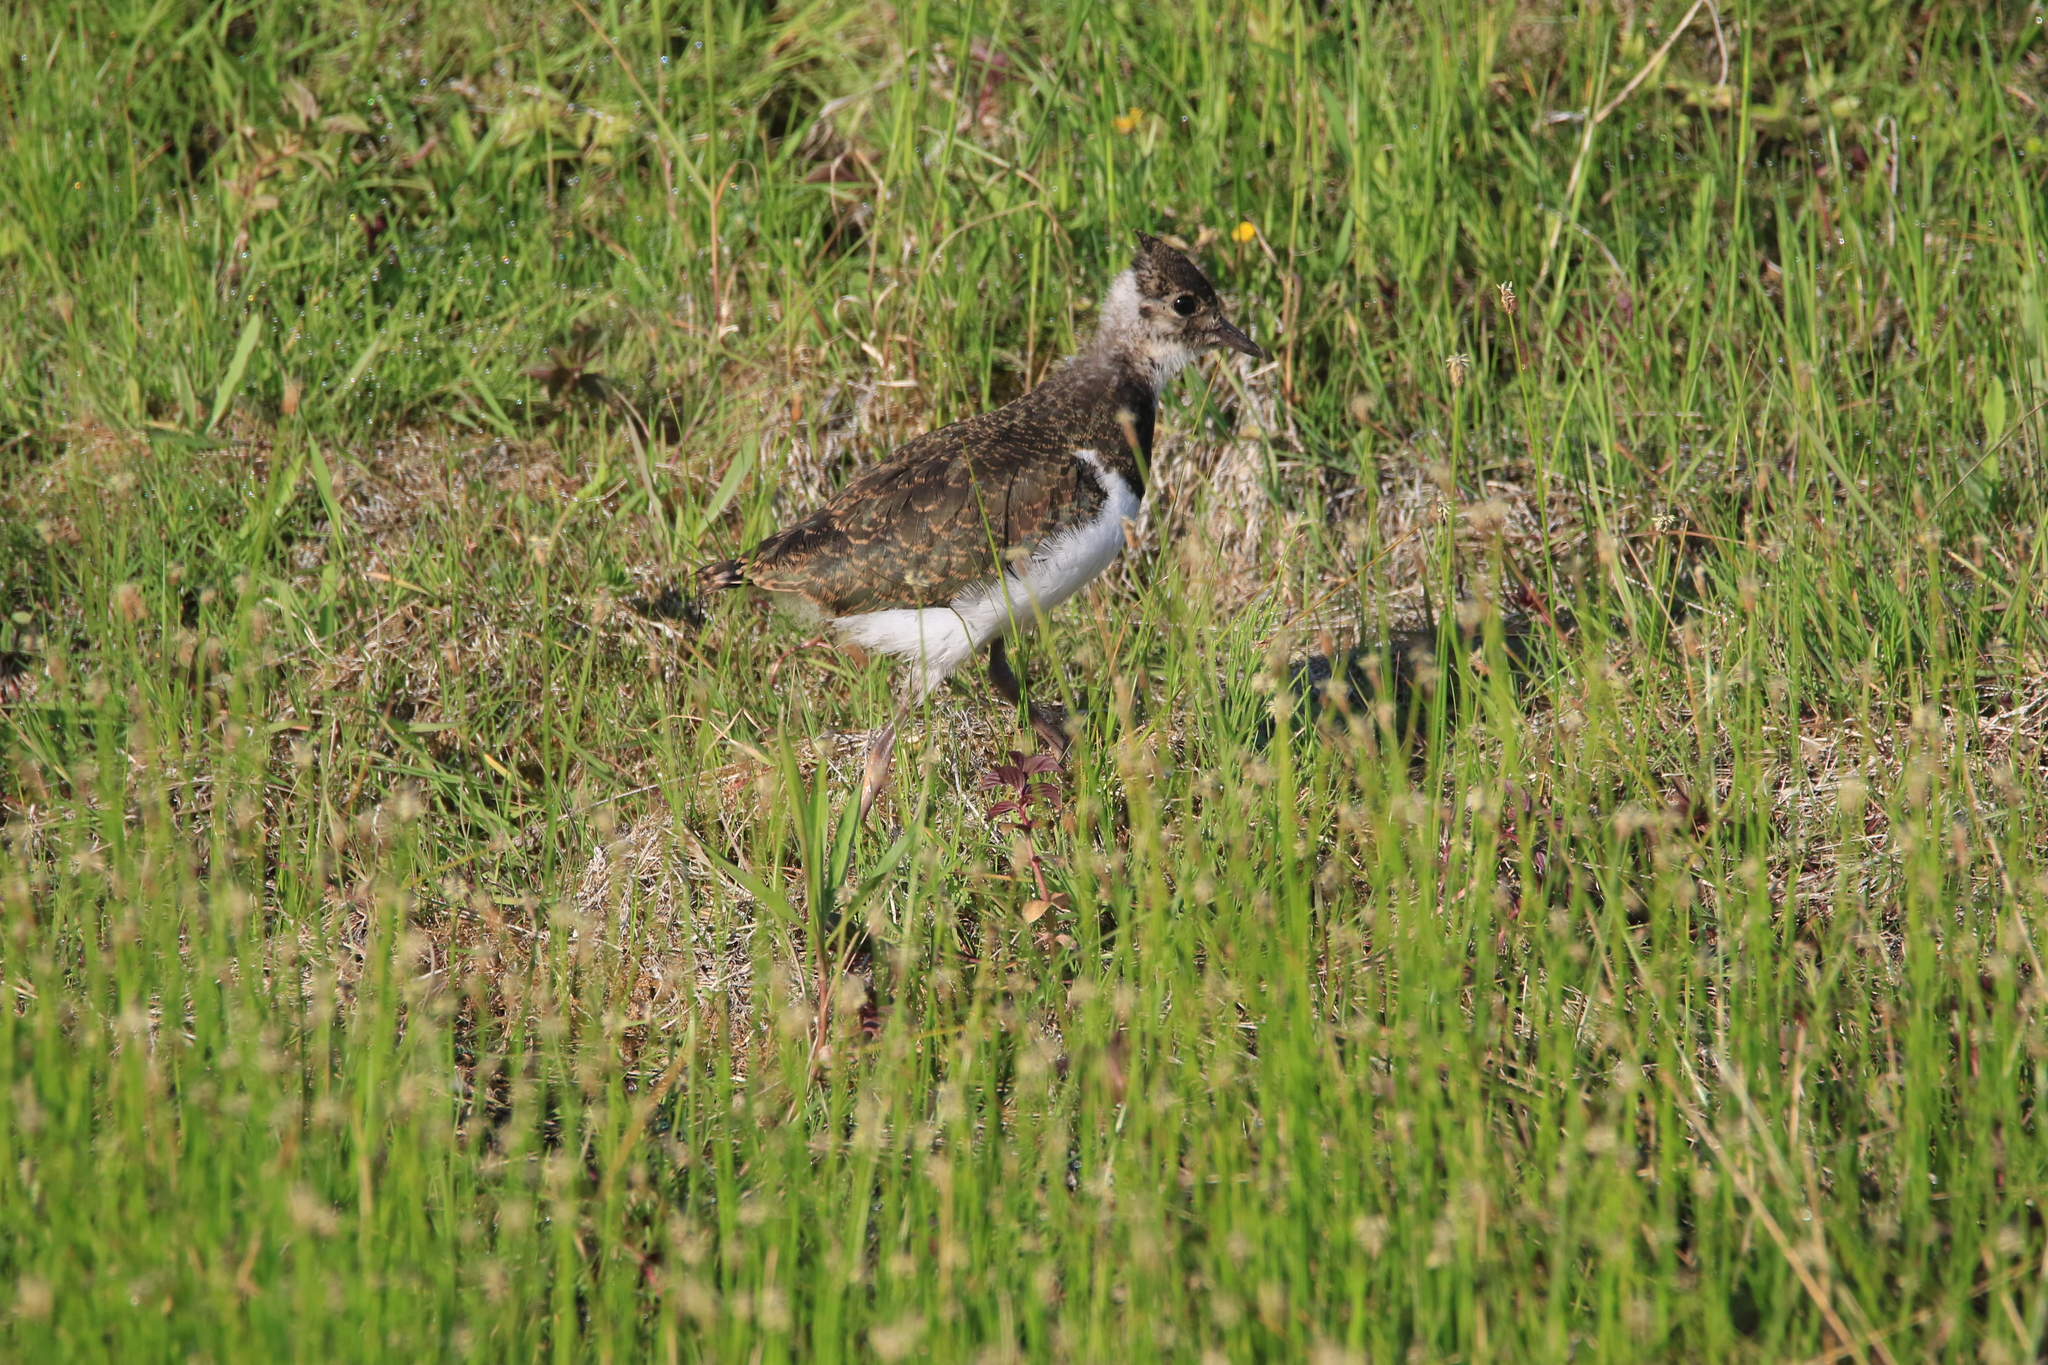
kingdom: Animalia
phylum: Chordata
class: Aves
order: Charadriiformes
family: Charadriidae
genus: Vanellus
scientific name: Vanellus vanellus
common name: Northern lapwing
